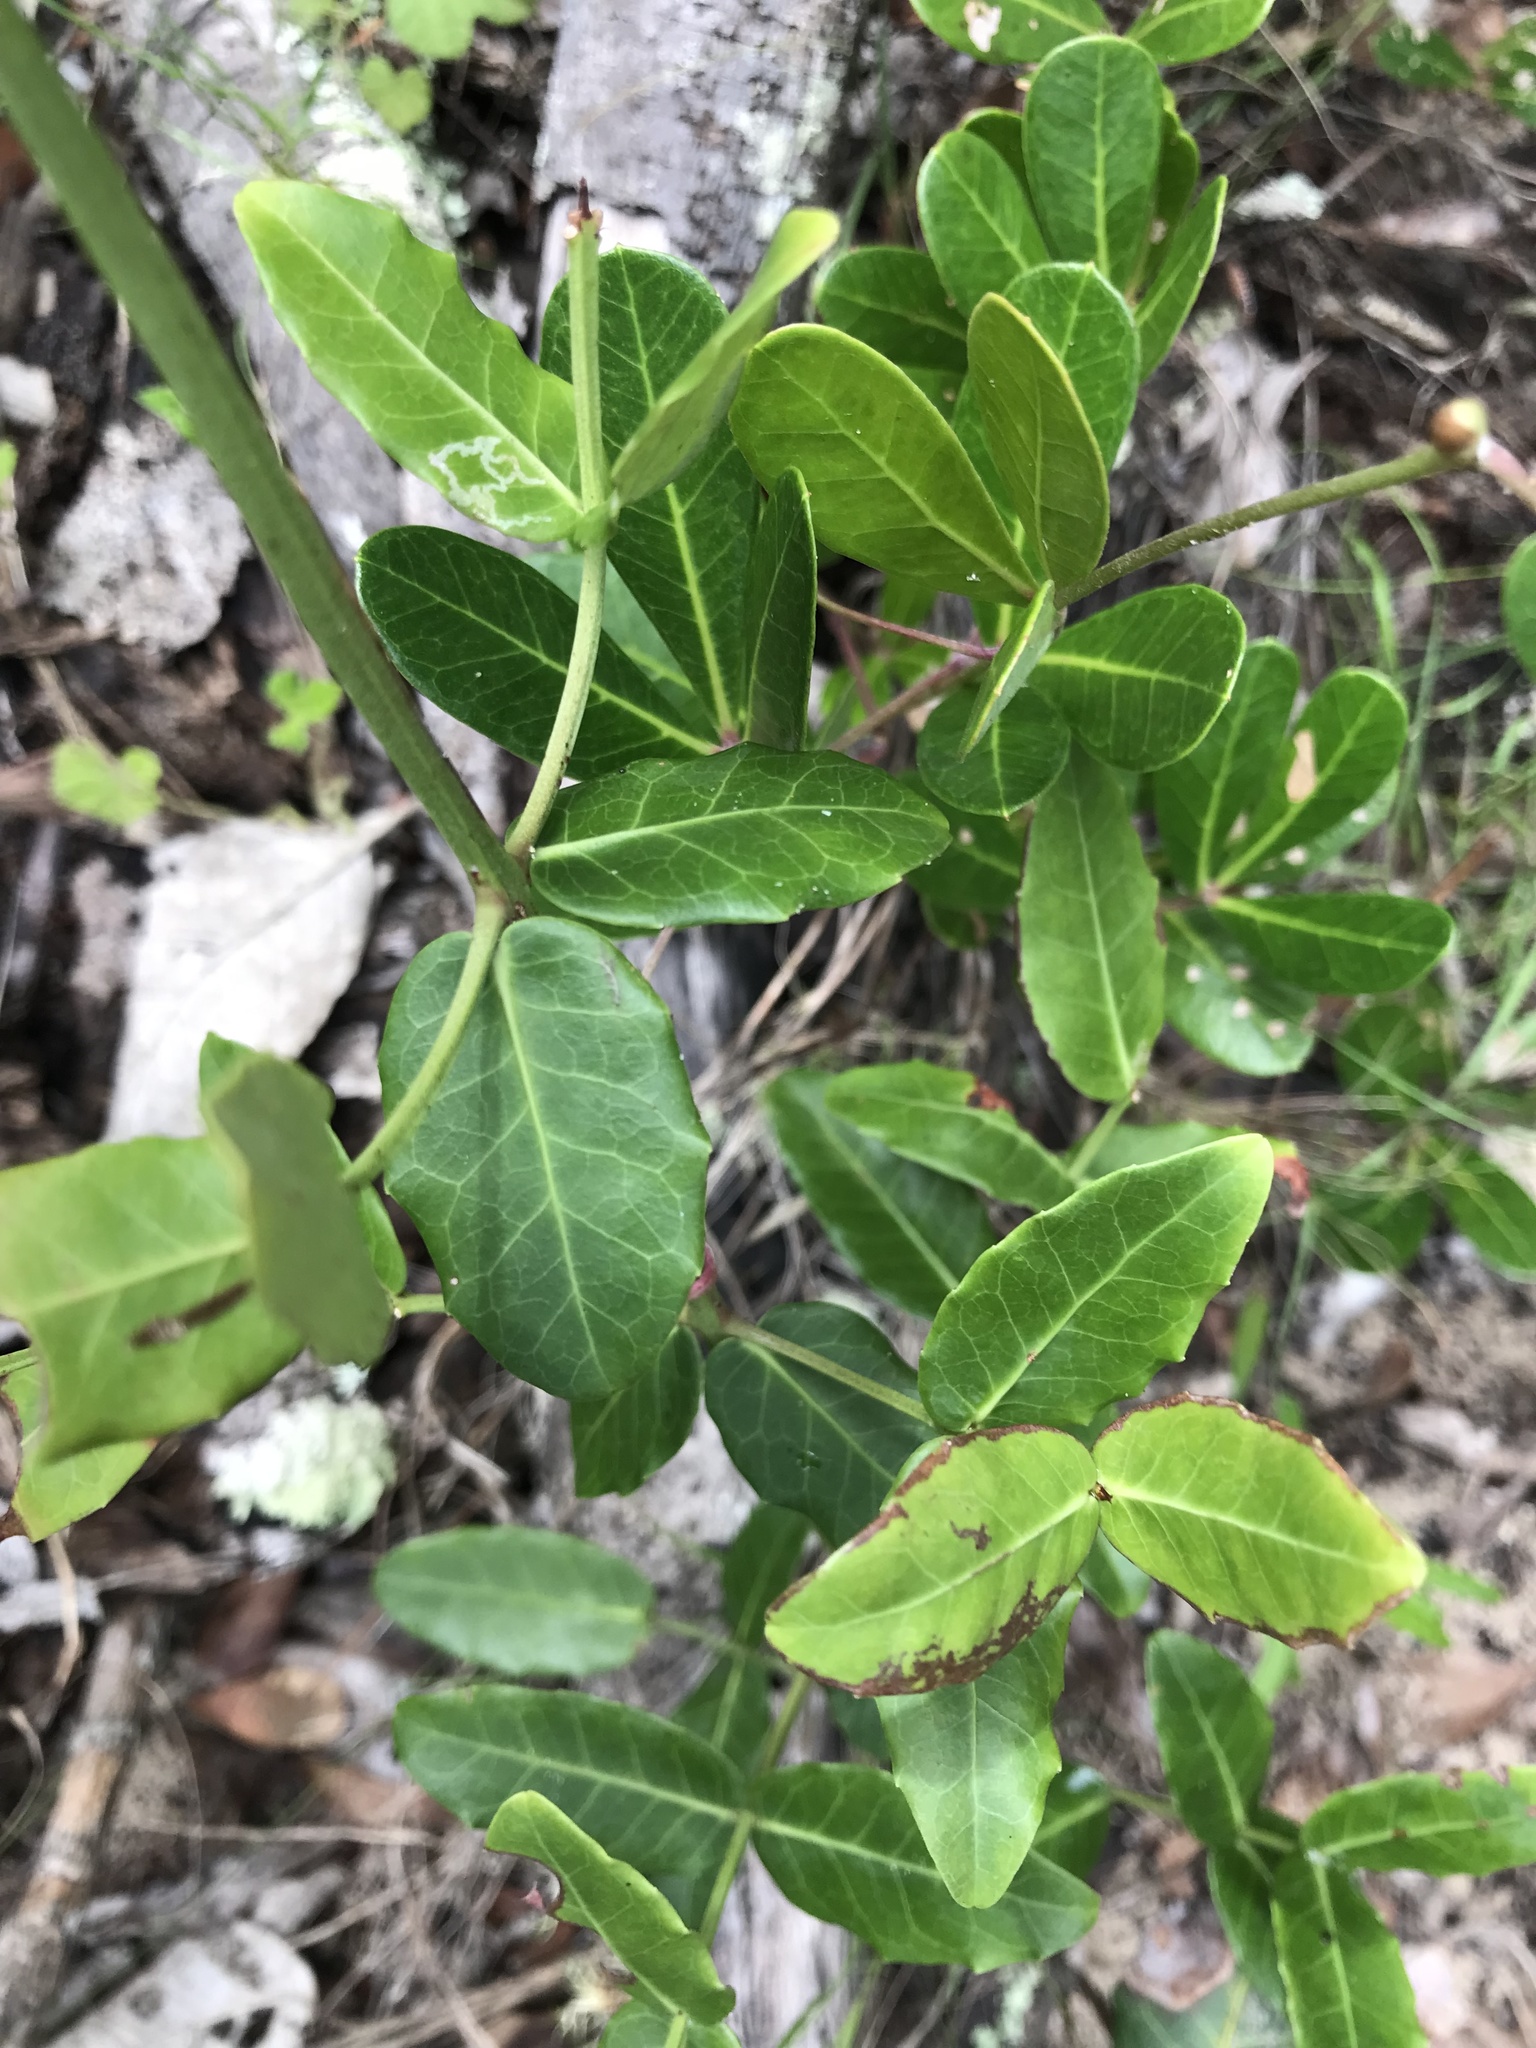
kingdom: Plantae
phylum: Tracheophyta
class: Magnoliopsida
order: Celastrales
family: Celastraceae
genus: Lauridia
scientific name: Lauridia tetragona
